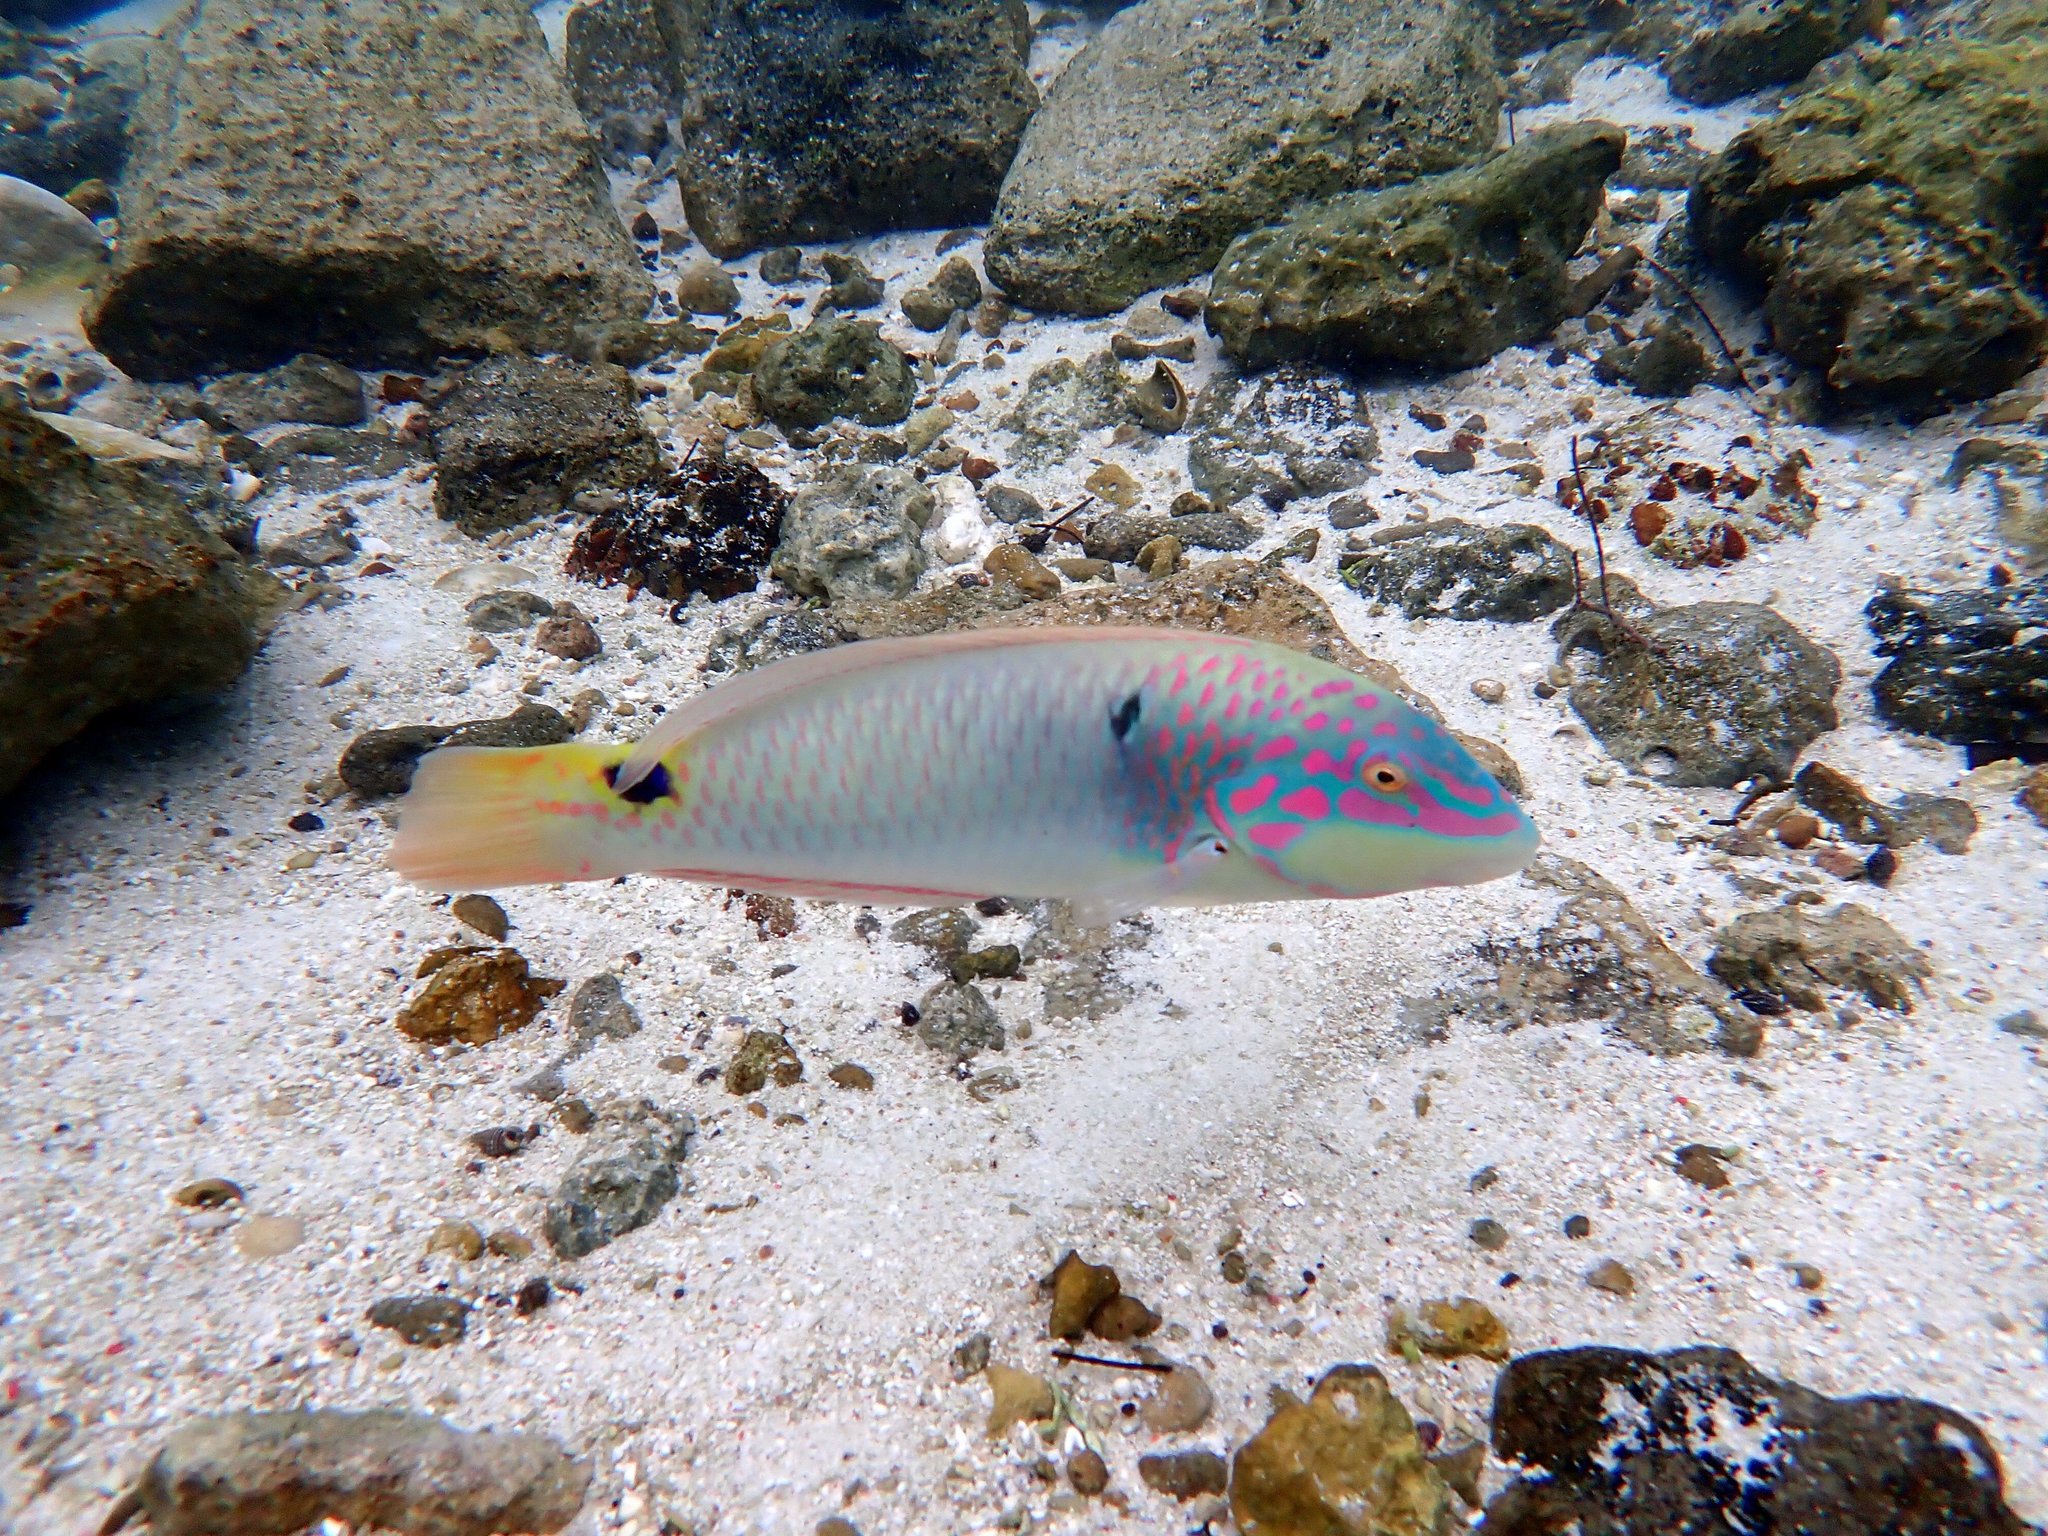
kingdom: Animalia
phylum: Chordata
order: Perciformes
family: Labridae
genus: Halichoeres
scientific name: Halichoeres trimaculatus
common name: Three-spot wrasse
